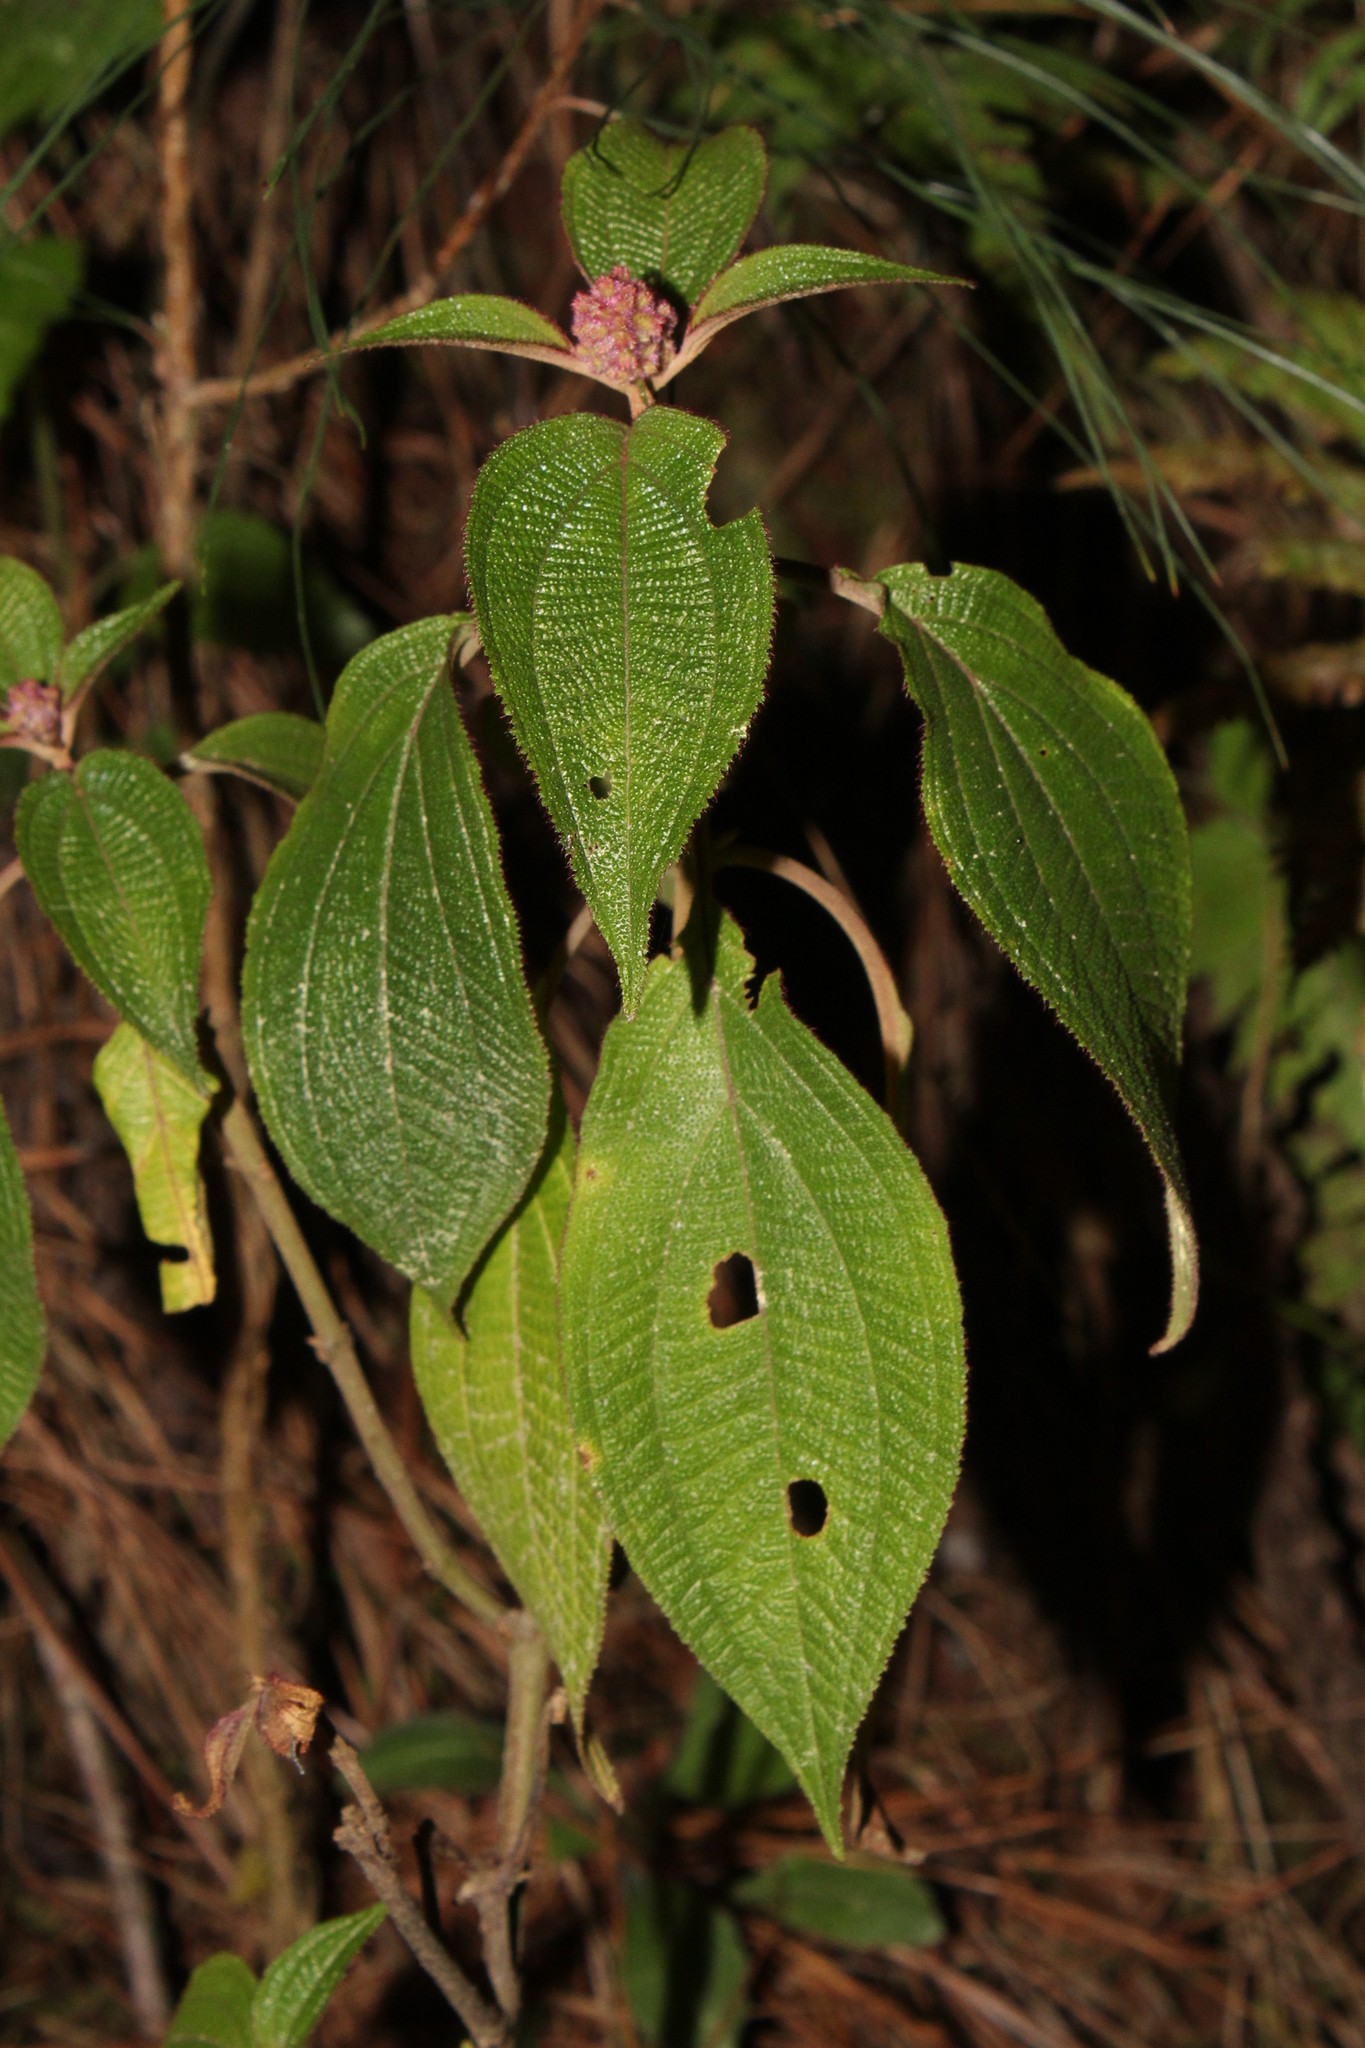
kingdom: Plantae
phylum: Tracheophyta
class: Magnoliopsida
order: Myrtales
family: Melastomataceae
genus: Miconia
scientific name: Miconia alterninervia
